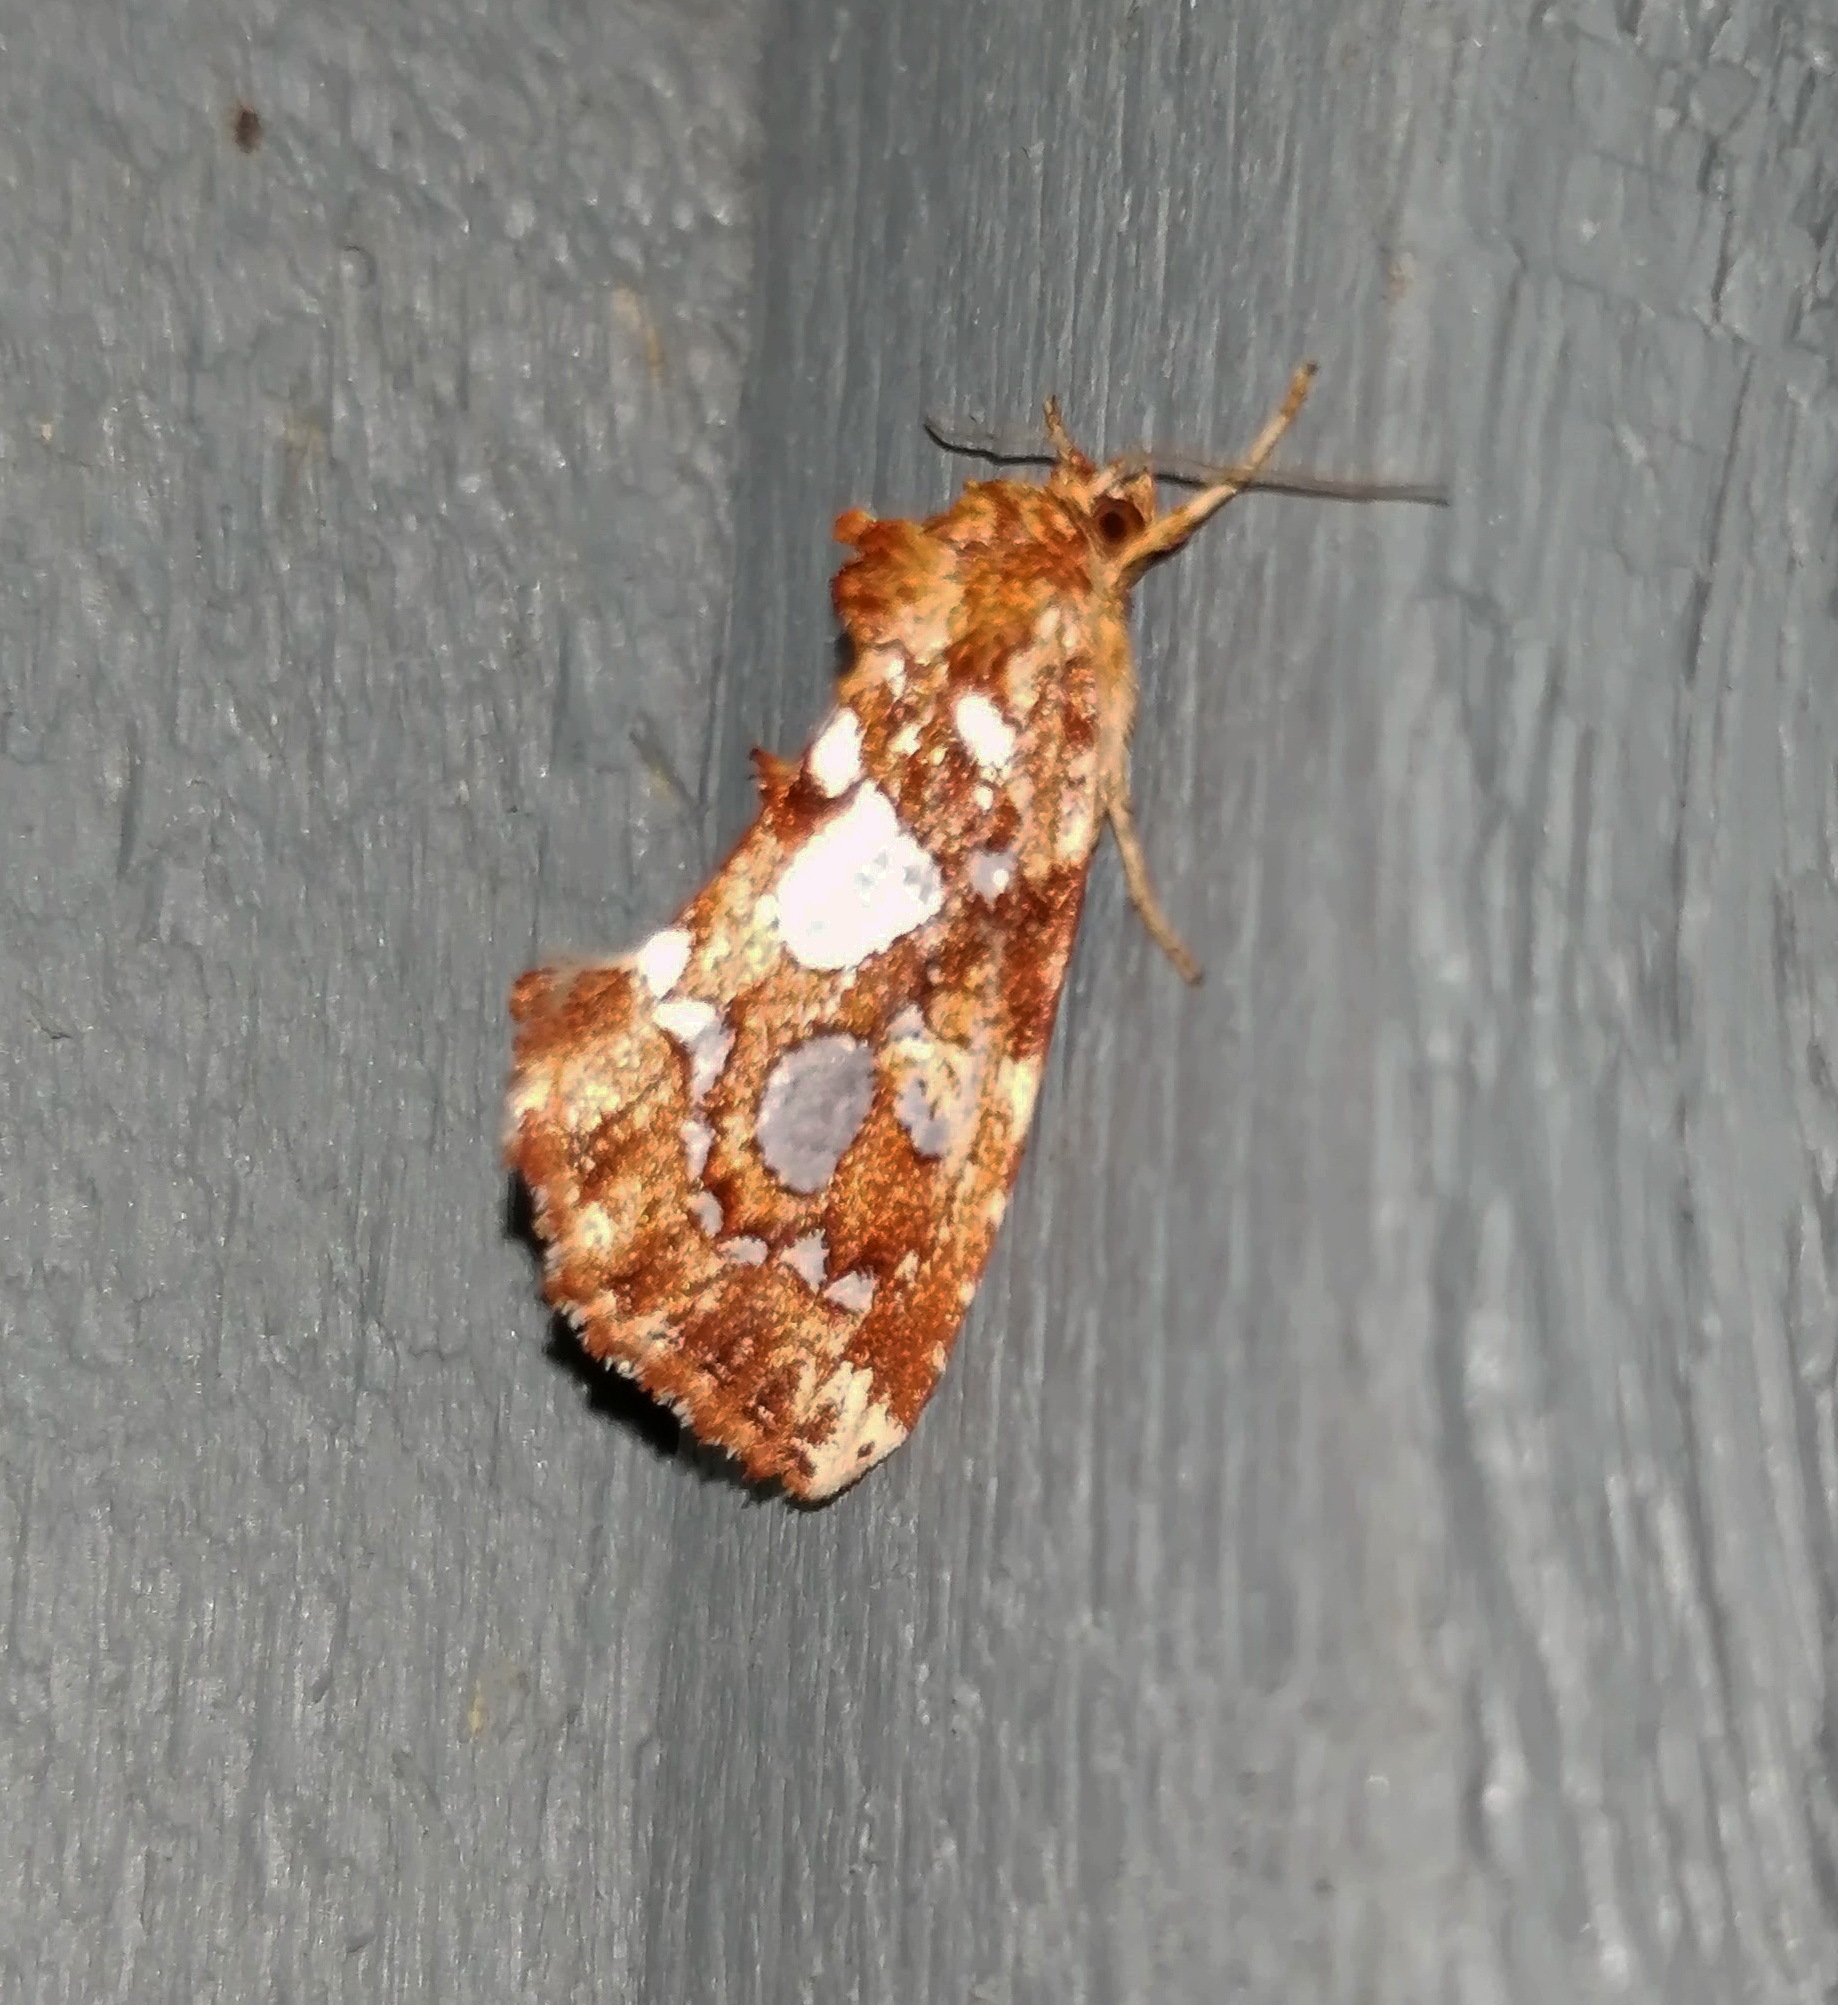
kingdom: Animalia
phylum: Arthropoda
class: Insecta
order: Lepidoptera
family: Noctuidae
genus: Callopistria
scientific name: Callopistria cordata
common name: Silver-spotted fern moth
